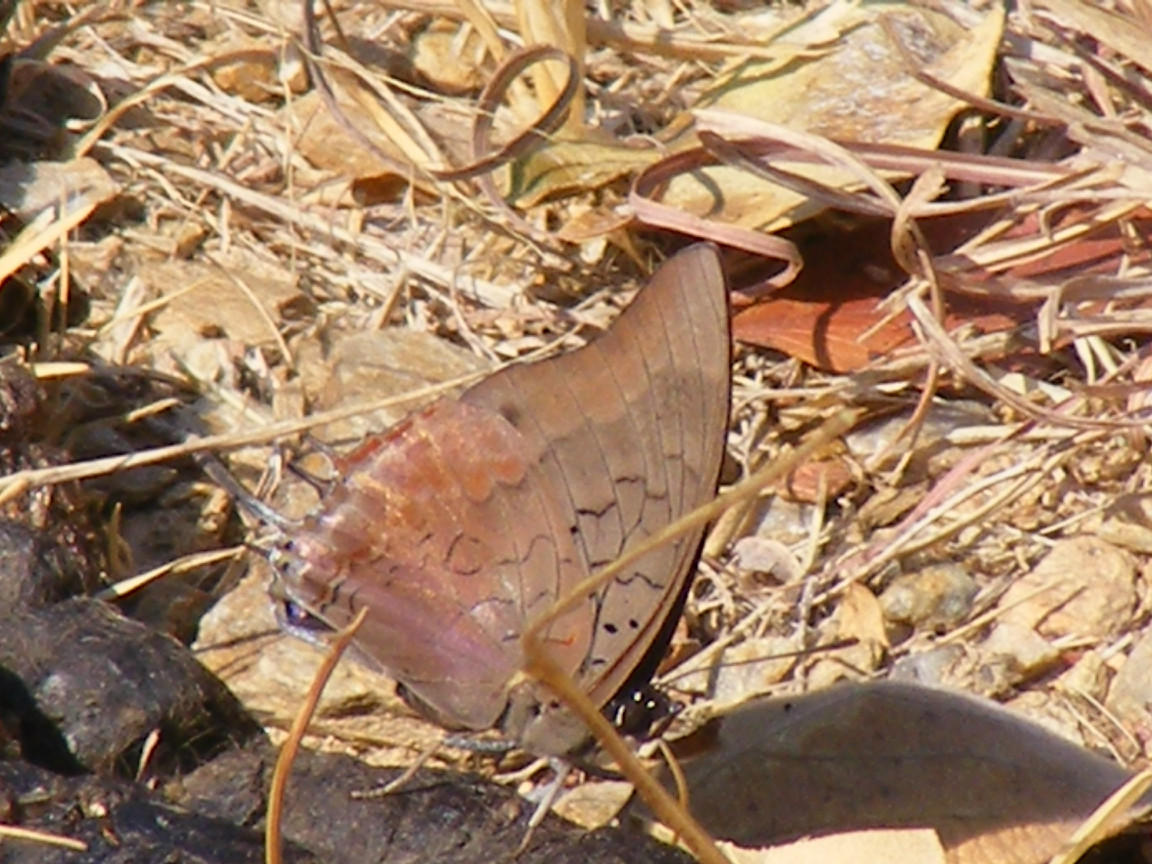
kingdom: Animalia
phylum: Arthropoda
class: Insecta
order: Lepidoptera
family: Nymphalidae
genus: Charaxes
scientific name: Charaxes viola
